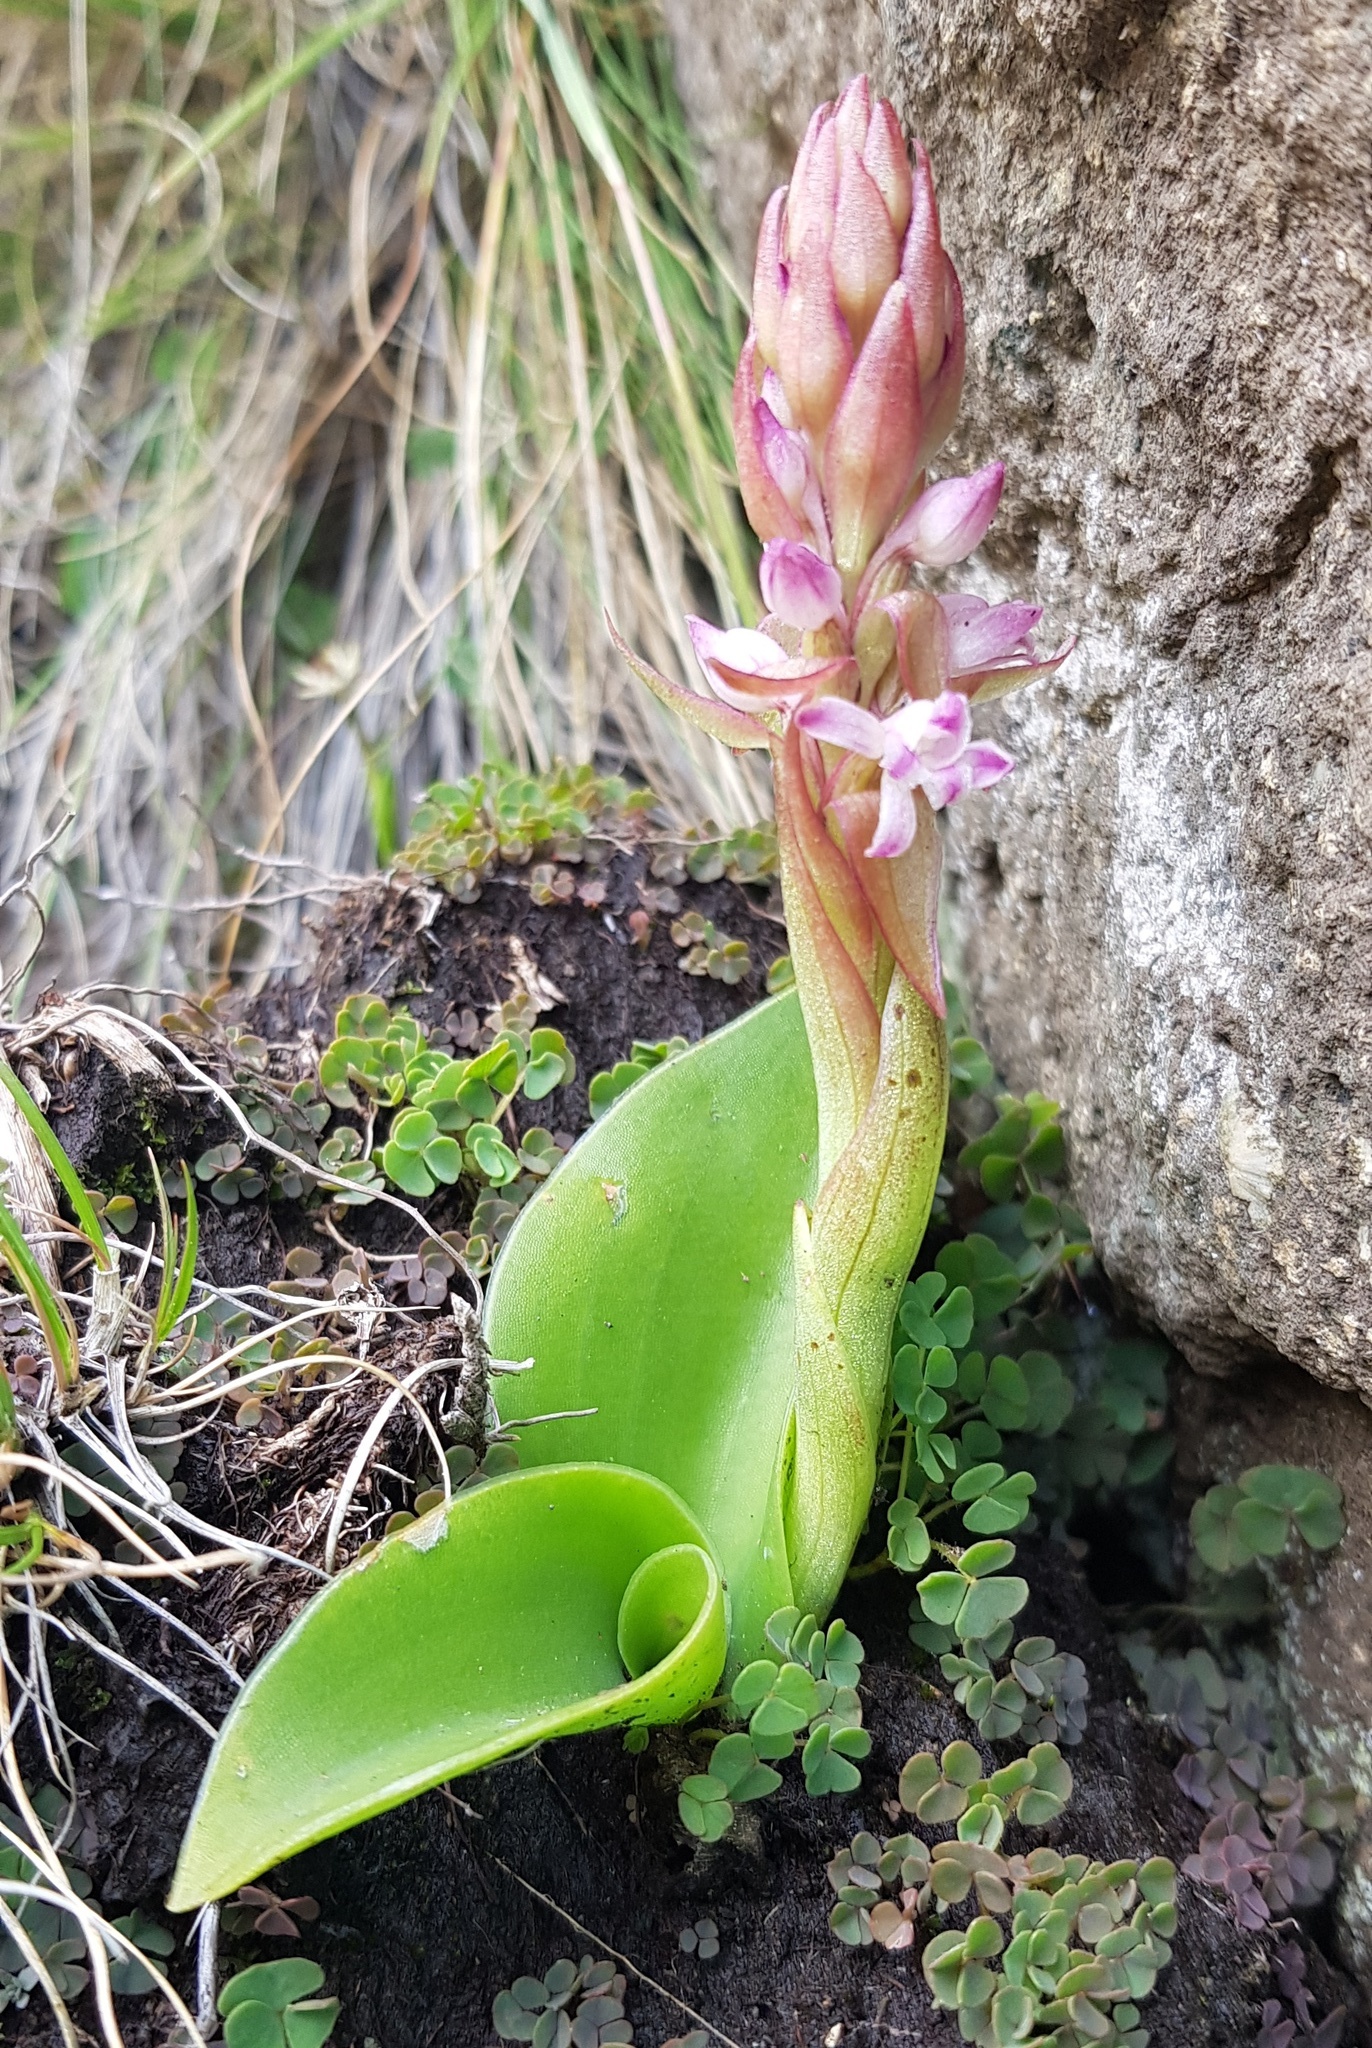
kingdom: Plantae
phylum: Tracheophyta
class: Liliopsida
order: Asparagales
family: Orchidaceae
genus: Satyrium
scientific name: Satyrium neglectum
